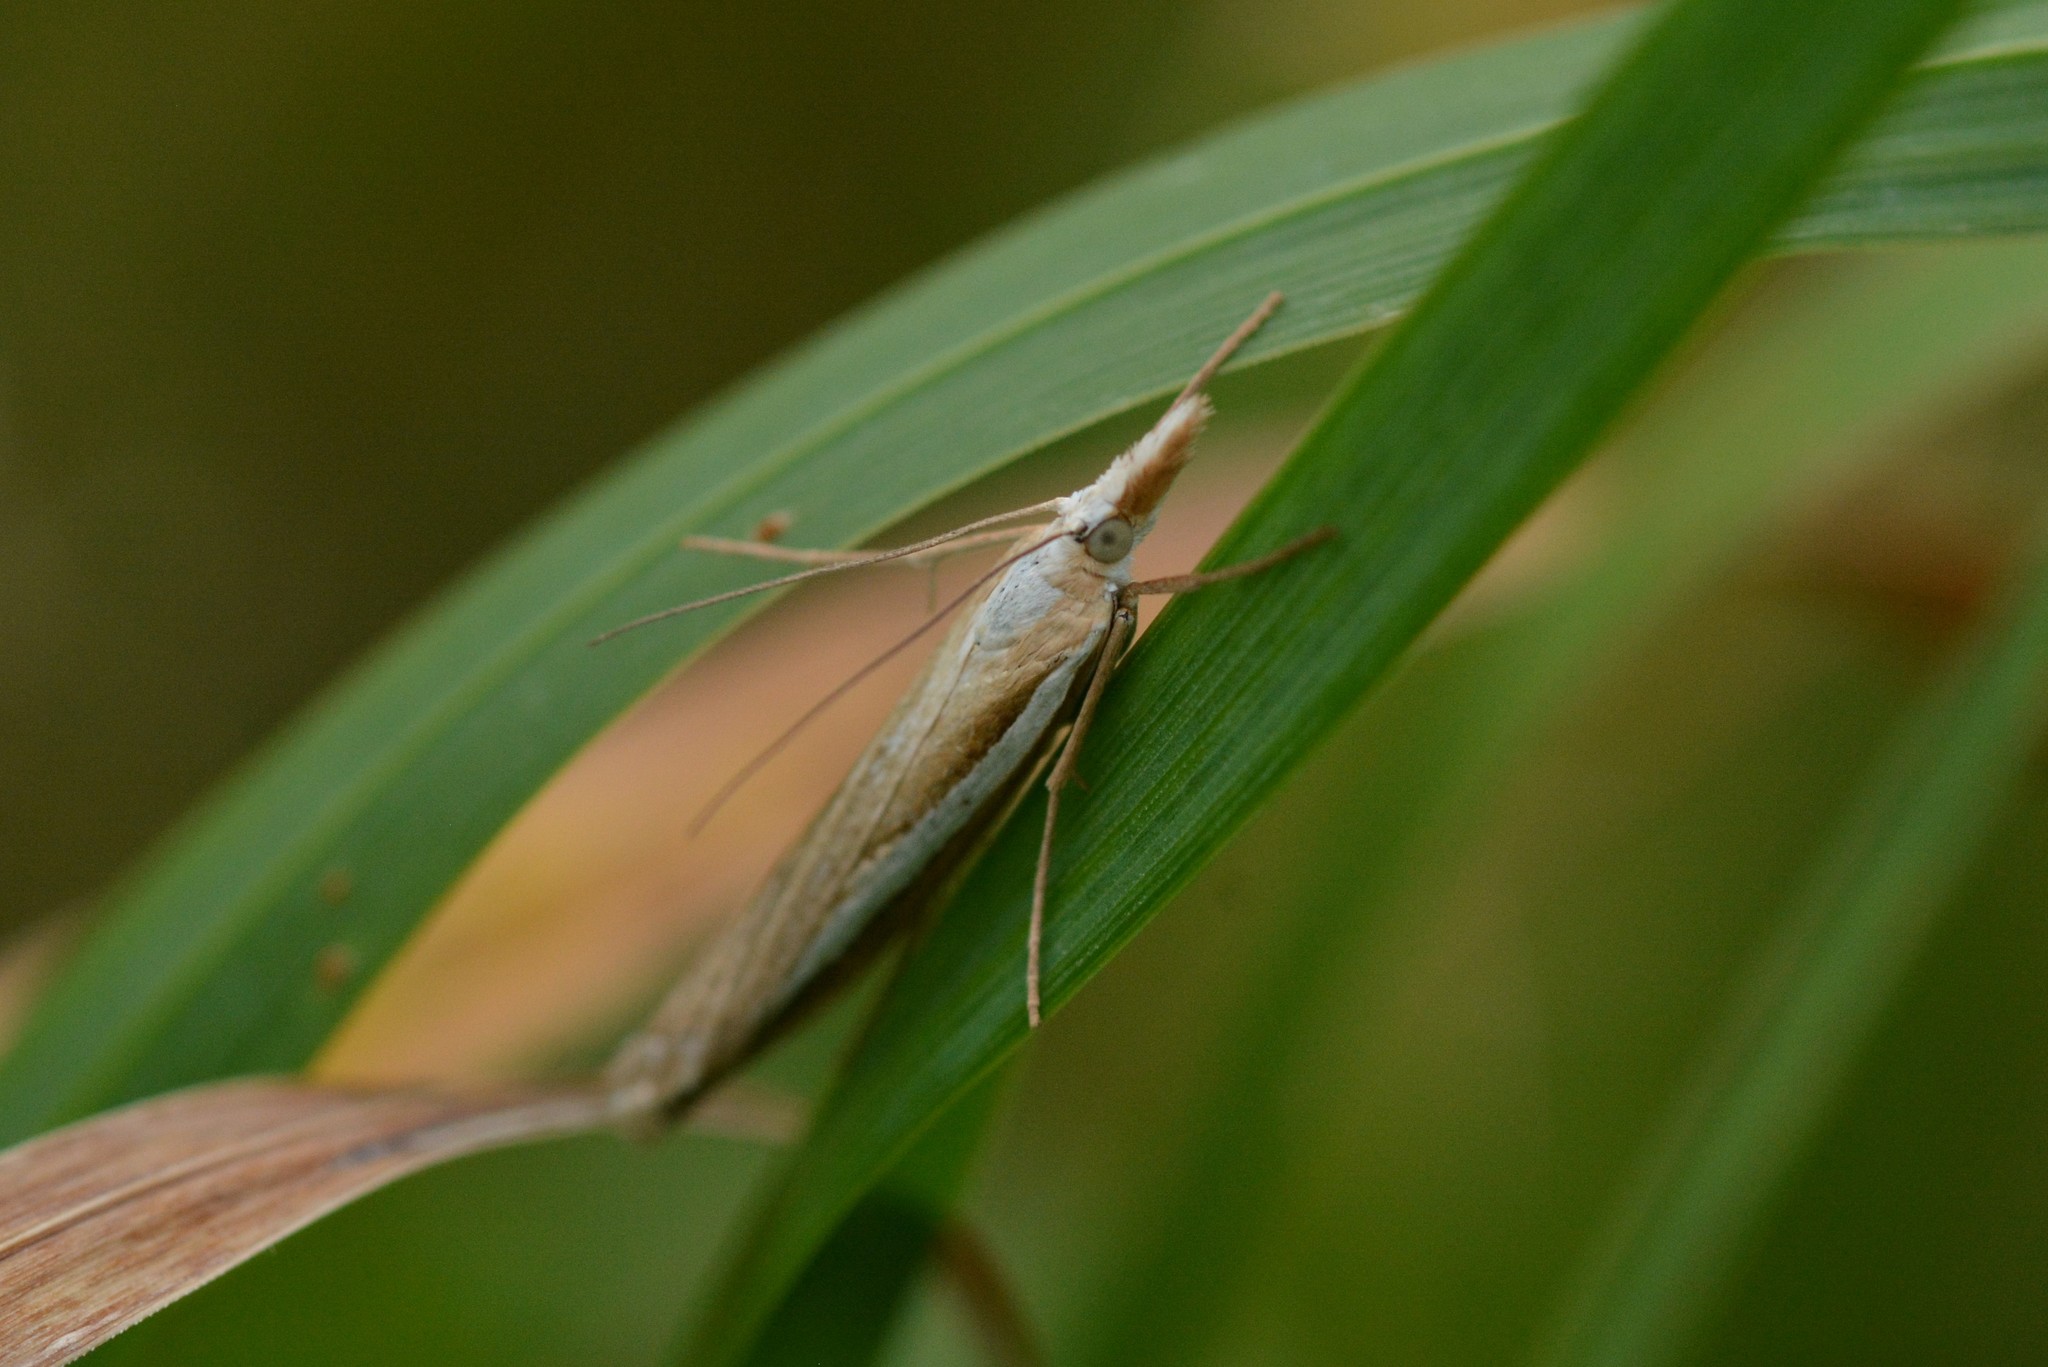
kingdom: Animalia
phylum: Arthropoda
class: Insecta
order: Lepidoptera
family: Crambidae
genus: Orocrambus
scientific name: Orocrambus vittellus
